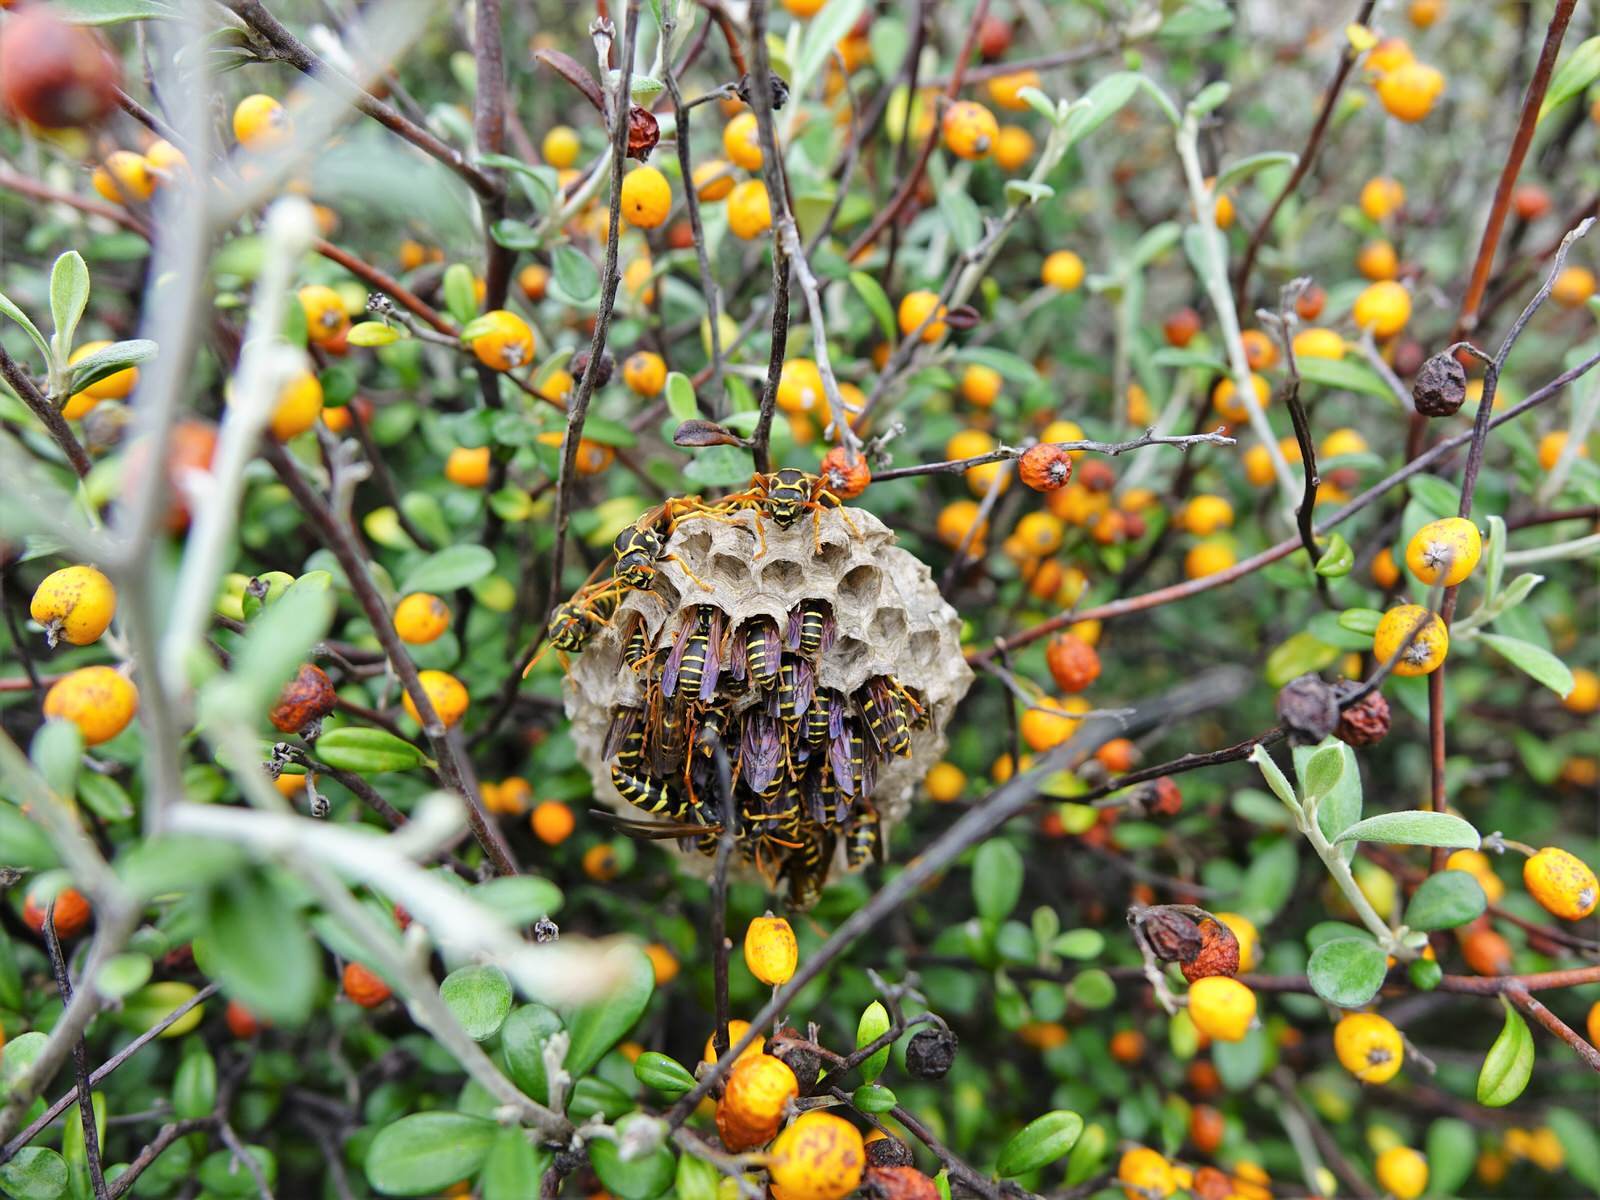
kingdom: Animalia
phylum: Arthropoda
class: Insecta
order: Hymenoptera
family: Eumenidae
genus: Polistes
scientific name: Polistes chinensis
